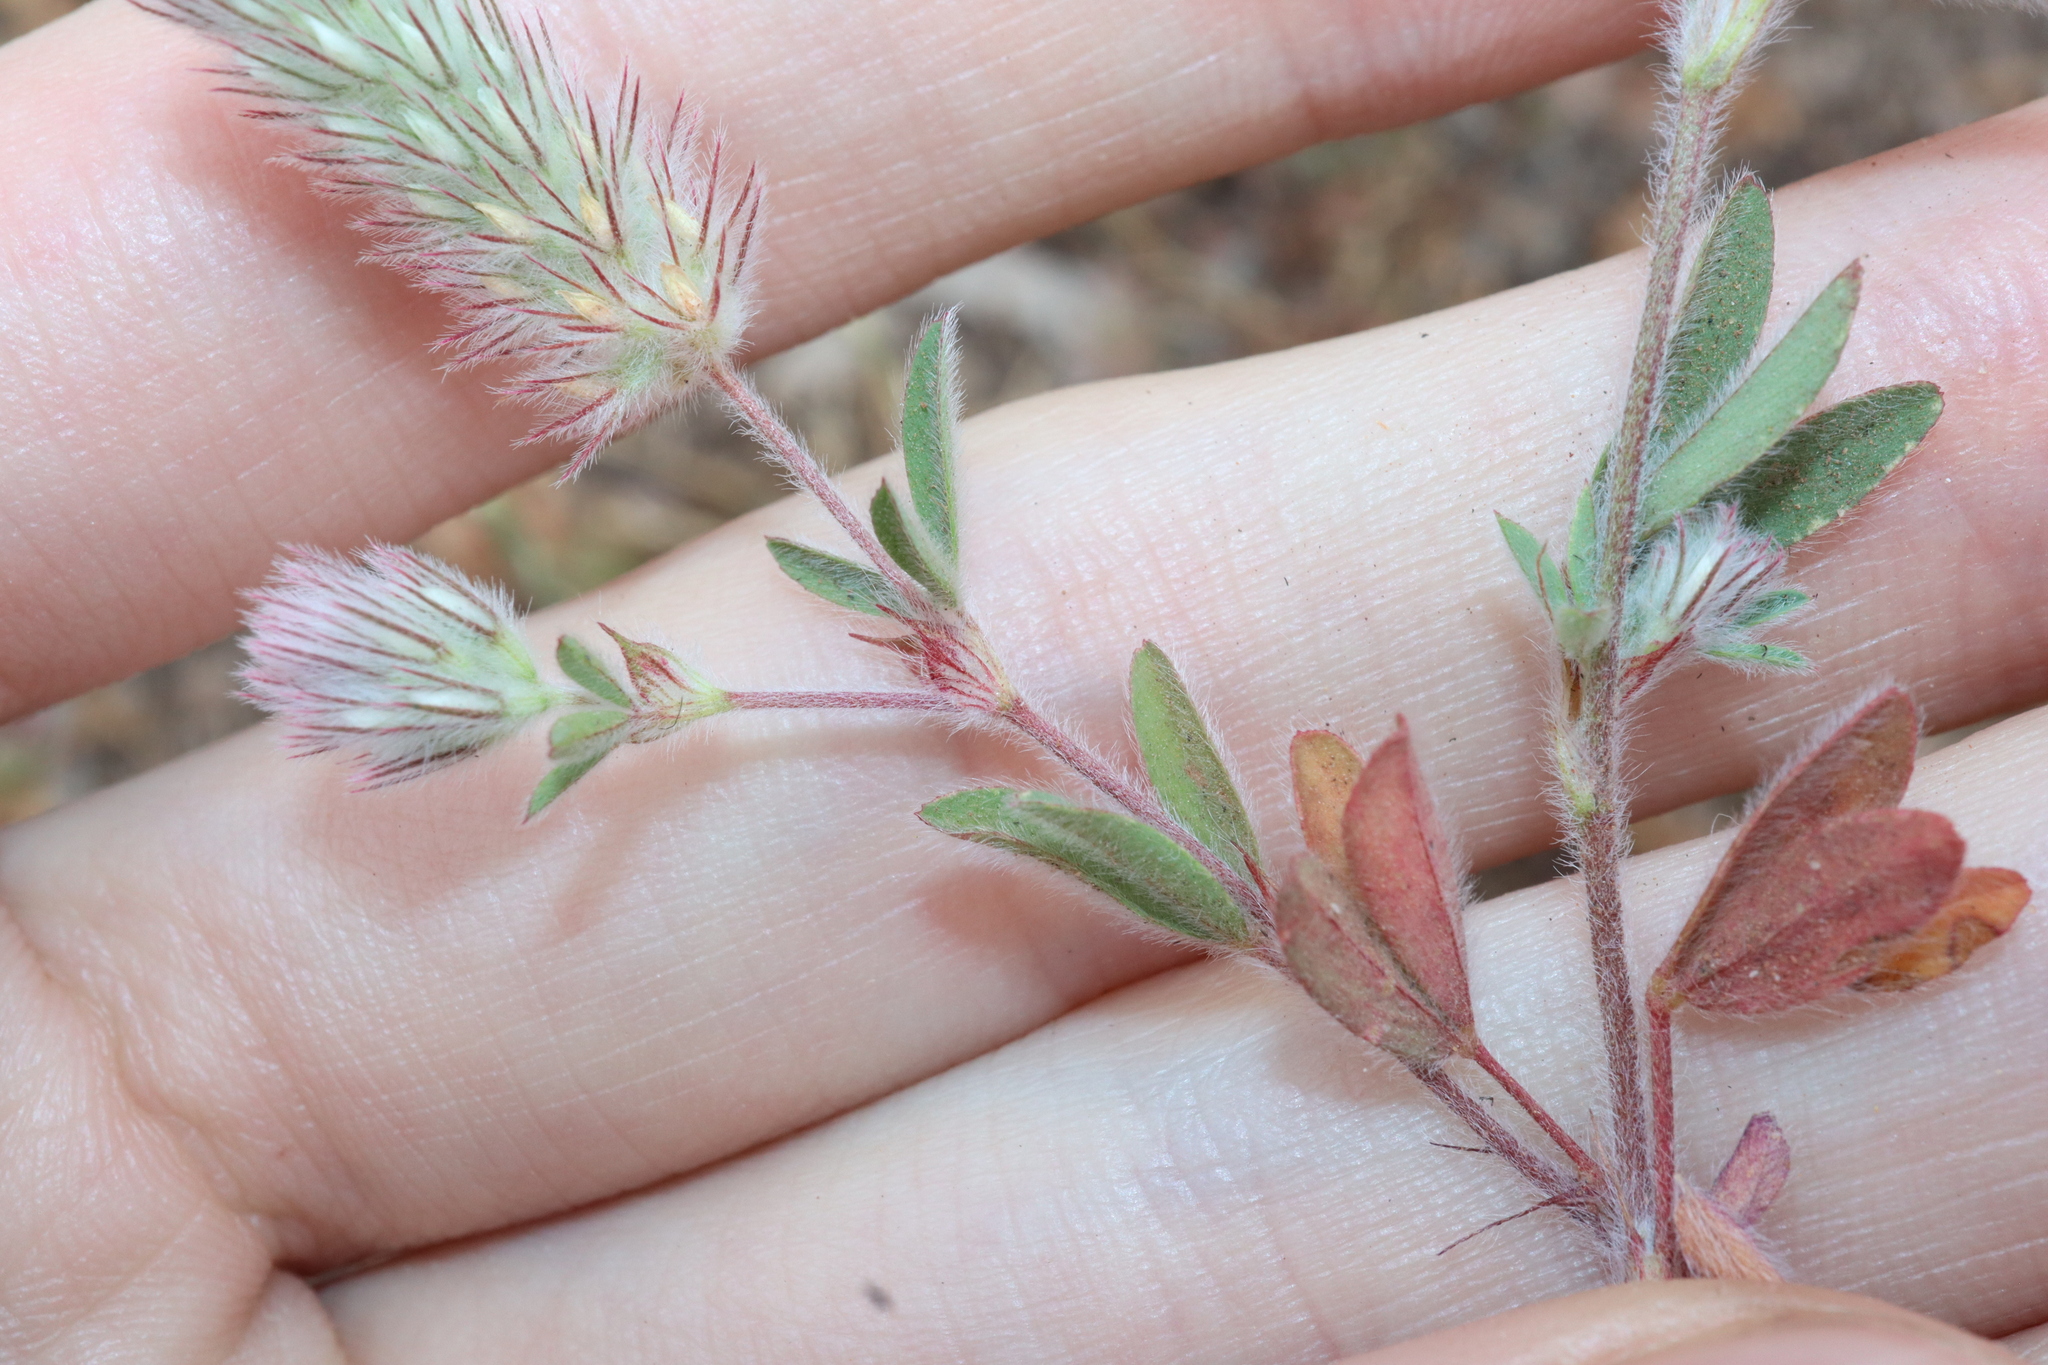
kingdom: Plantae
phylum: Tracheophyta
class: Magnoliopsida
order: Fabales
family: Fabaceae
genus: Trifolium
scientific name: Trifolium arvense
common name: Hare's-foot clover
